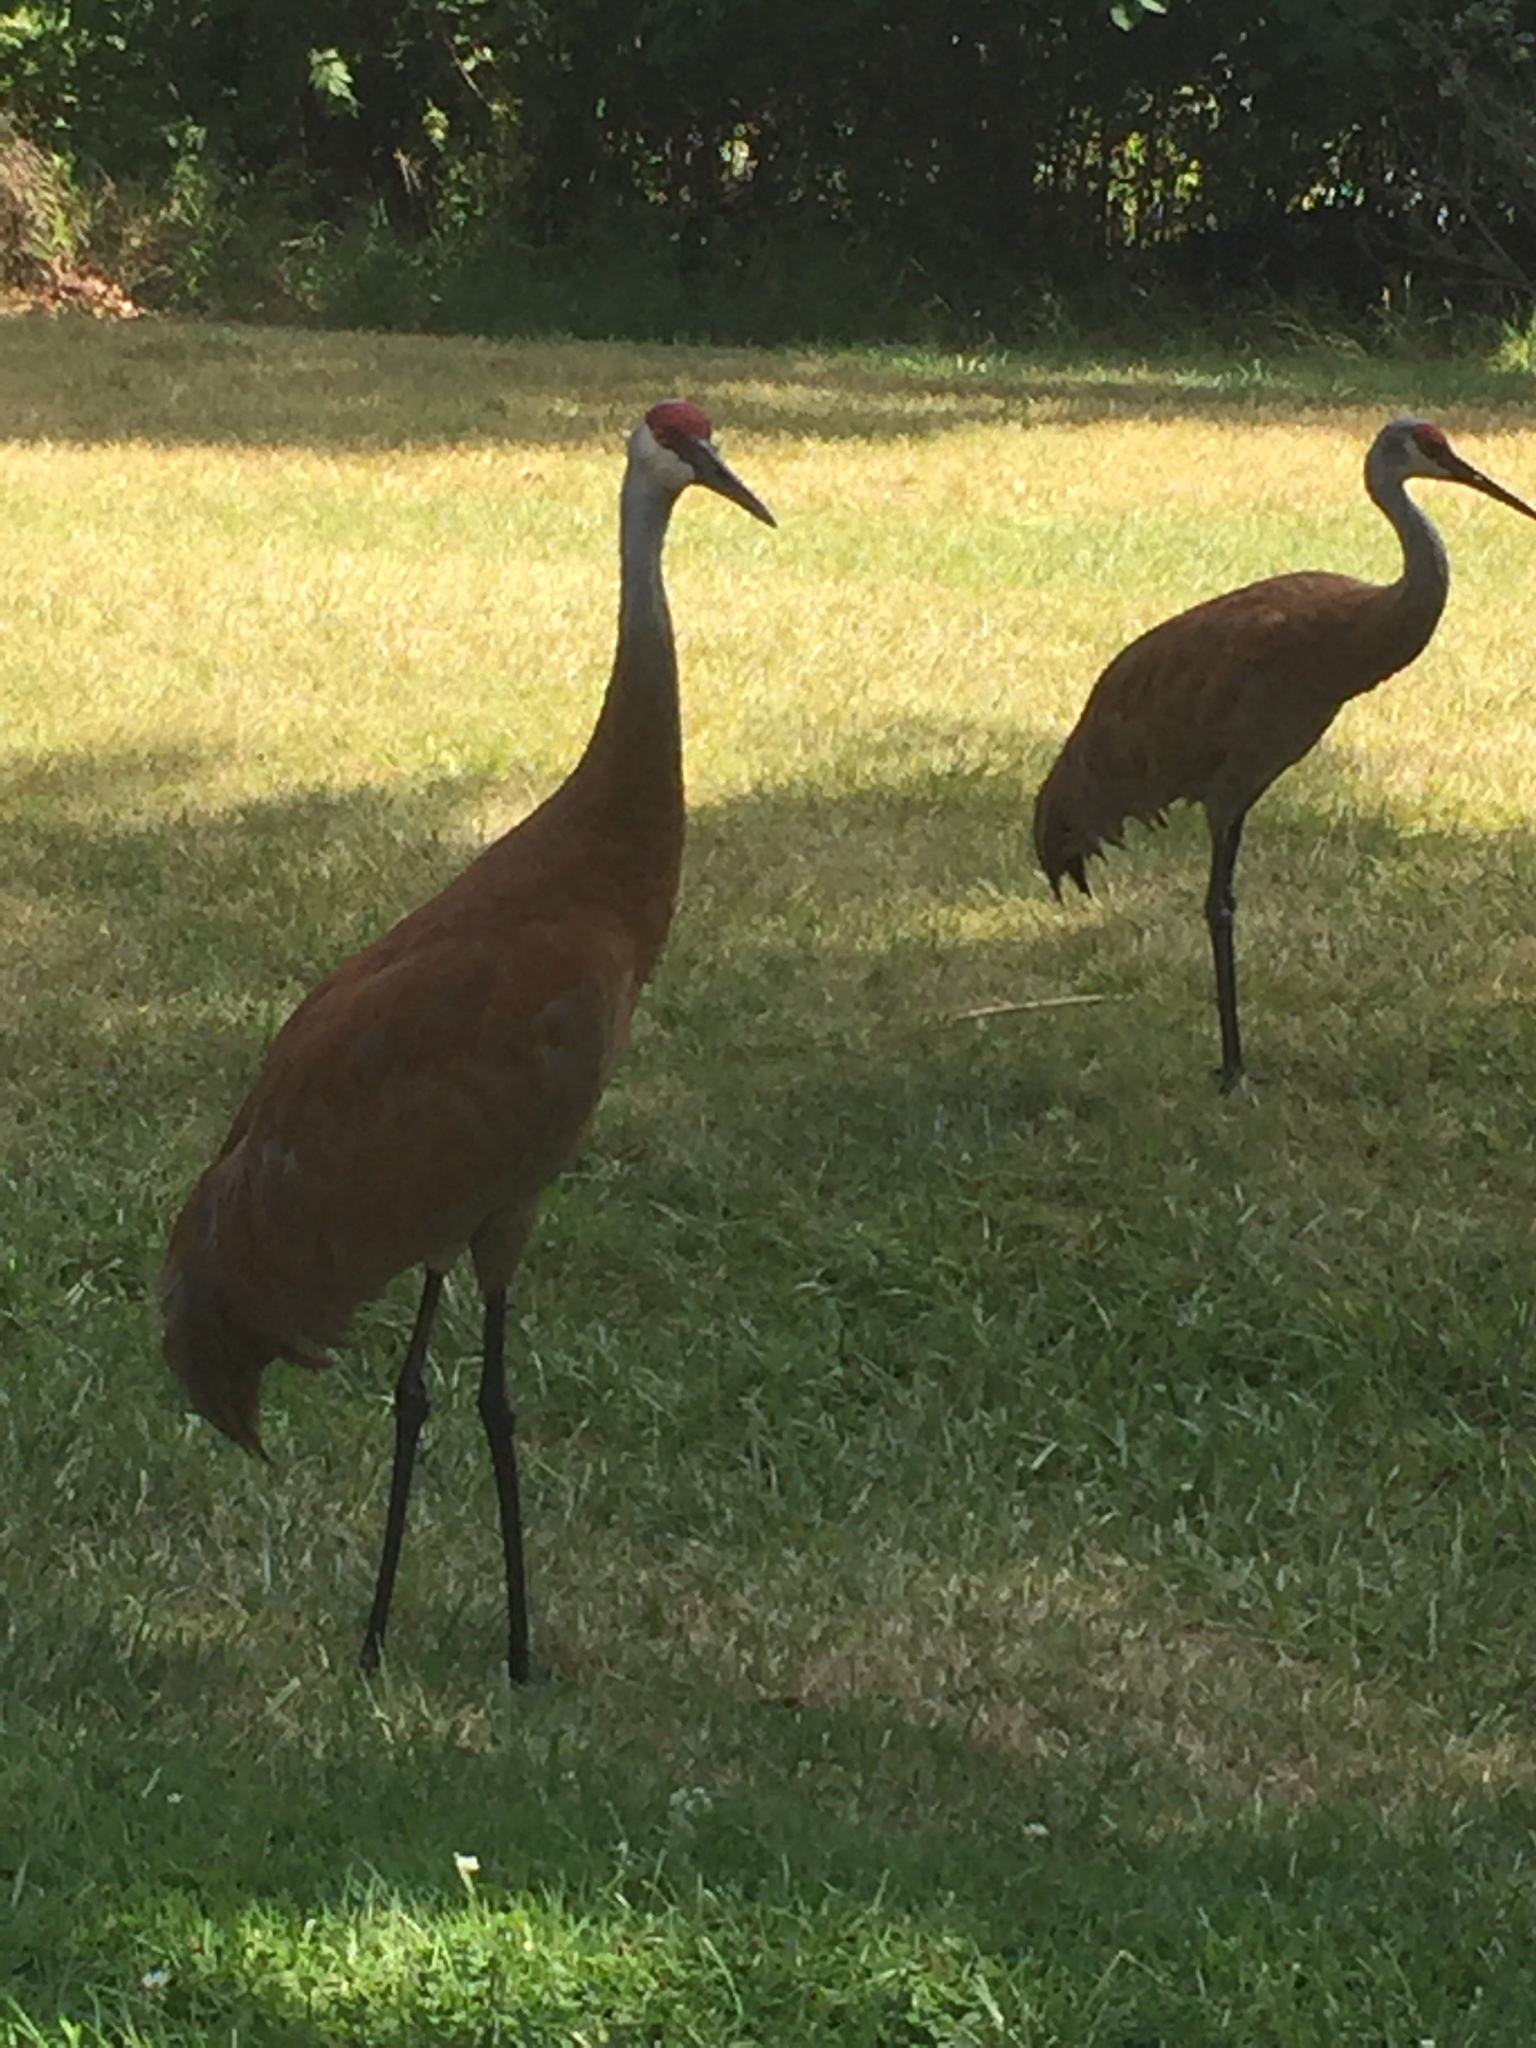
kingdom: Animalia
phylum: Chordata
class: Aves
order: Gruiformes
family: Gruidae
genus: Grus
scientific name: Grus canadensis
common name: Sandhill crane
